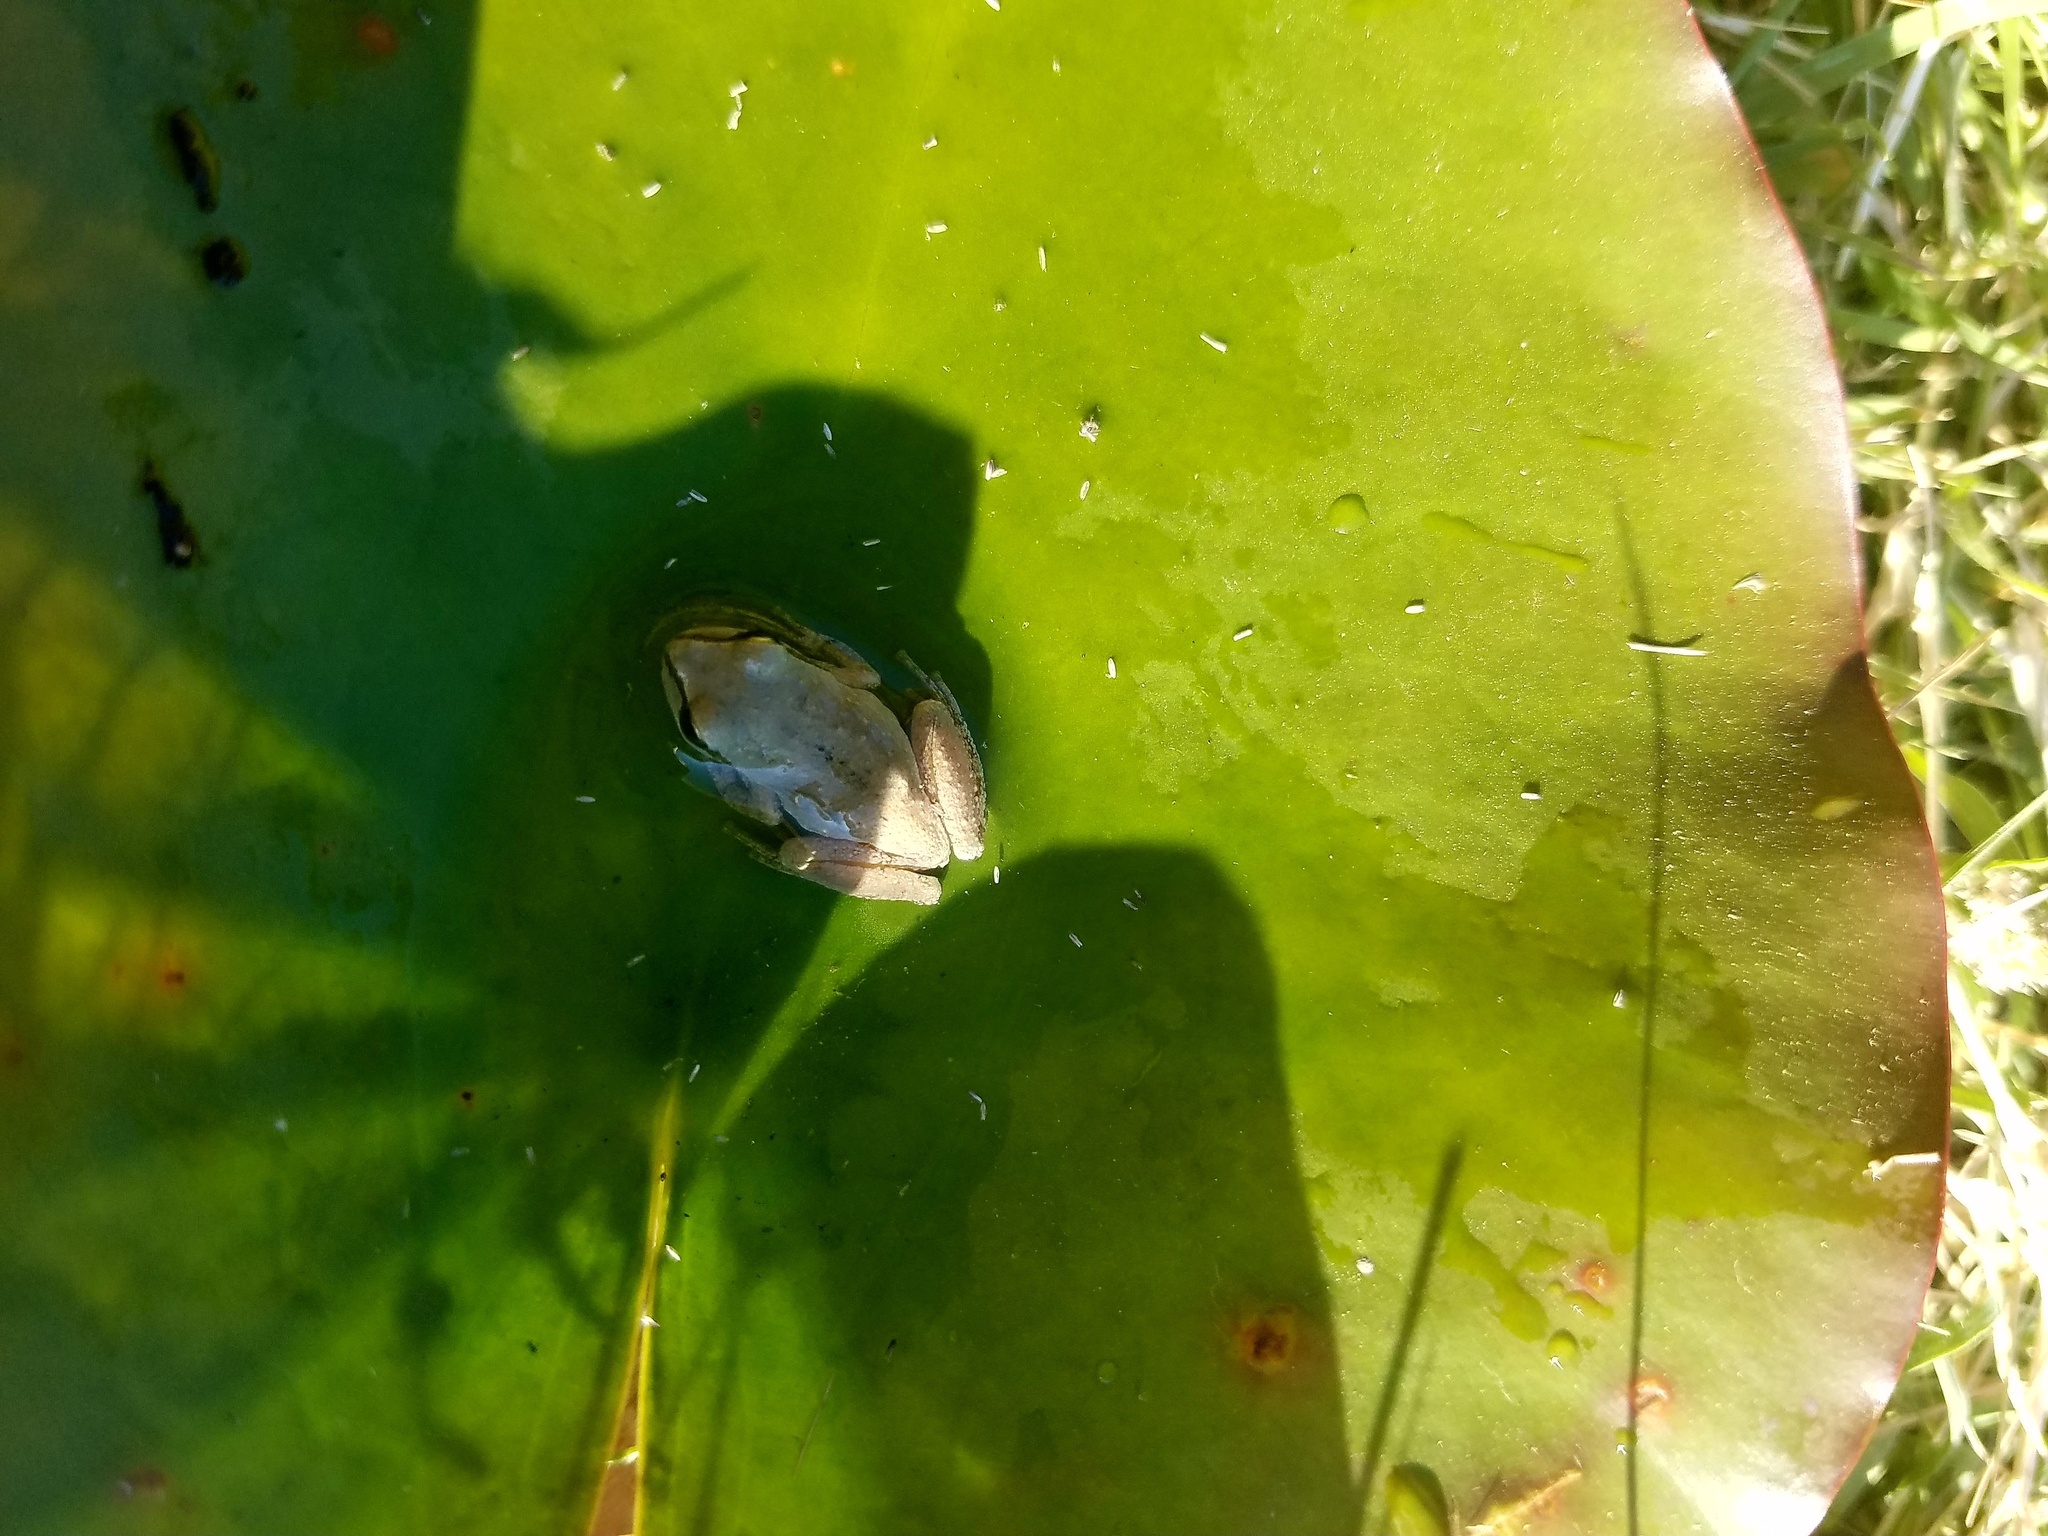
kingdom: Animalia
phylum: Chordata
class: Amphibia
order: Anura
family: Hylidae
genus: Pseudacris
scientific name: Pseudacris regilla
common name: Pacific chorus frog
